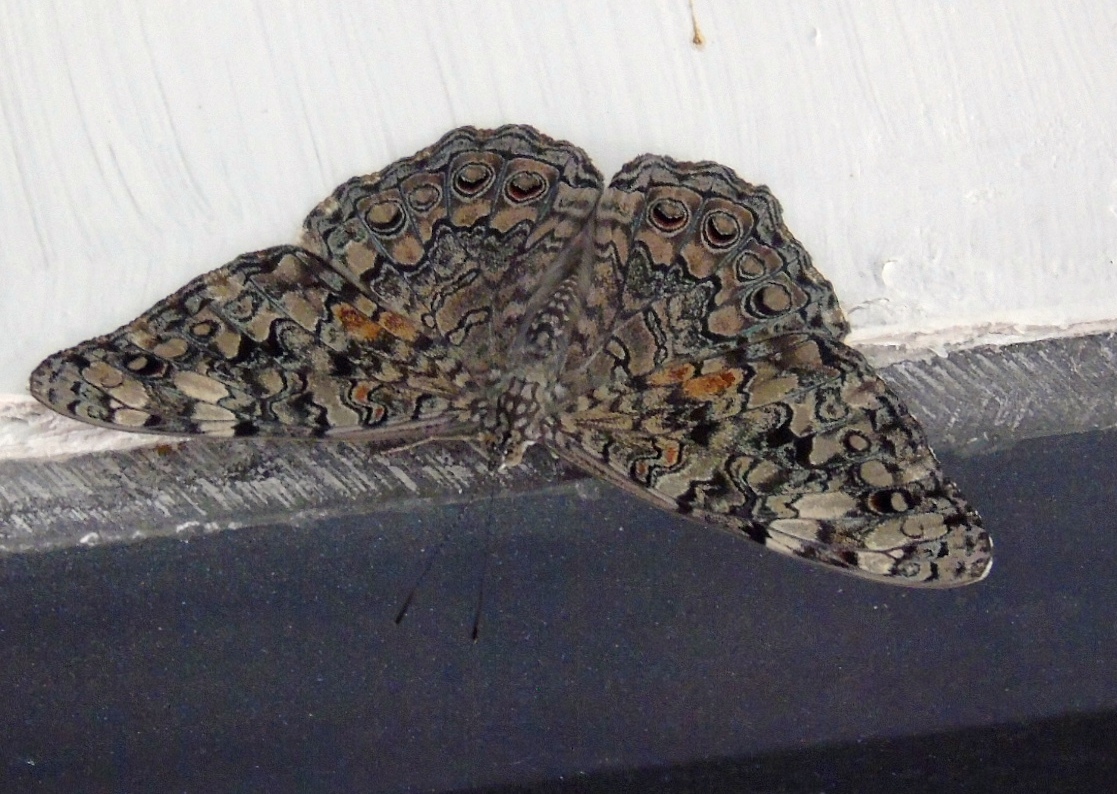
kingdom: Animalia
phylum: Arthropoda
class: Insecta
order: Lepidoptera
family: Nymphalidae
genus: Hamadryas
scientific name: Hamadryas februa
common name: Gray cracker
